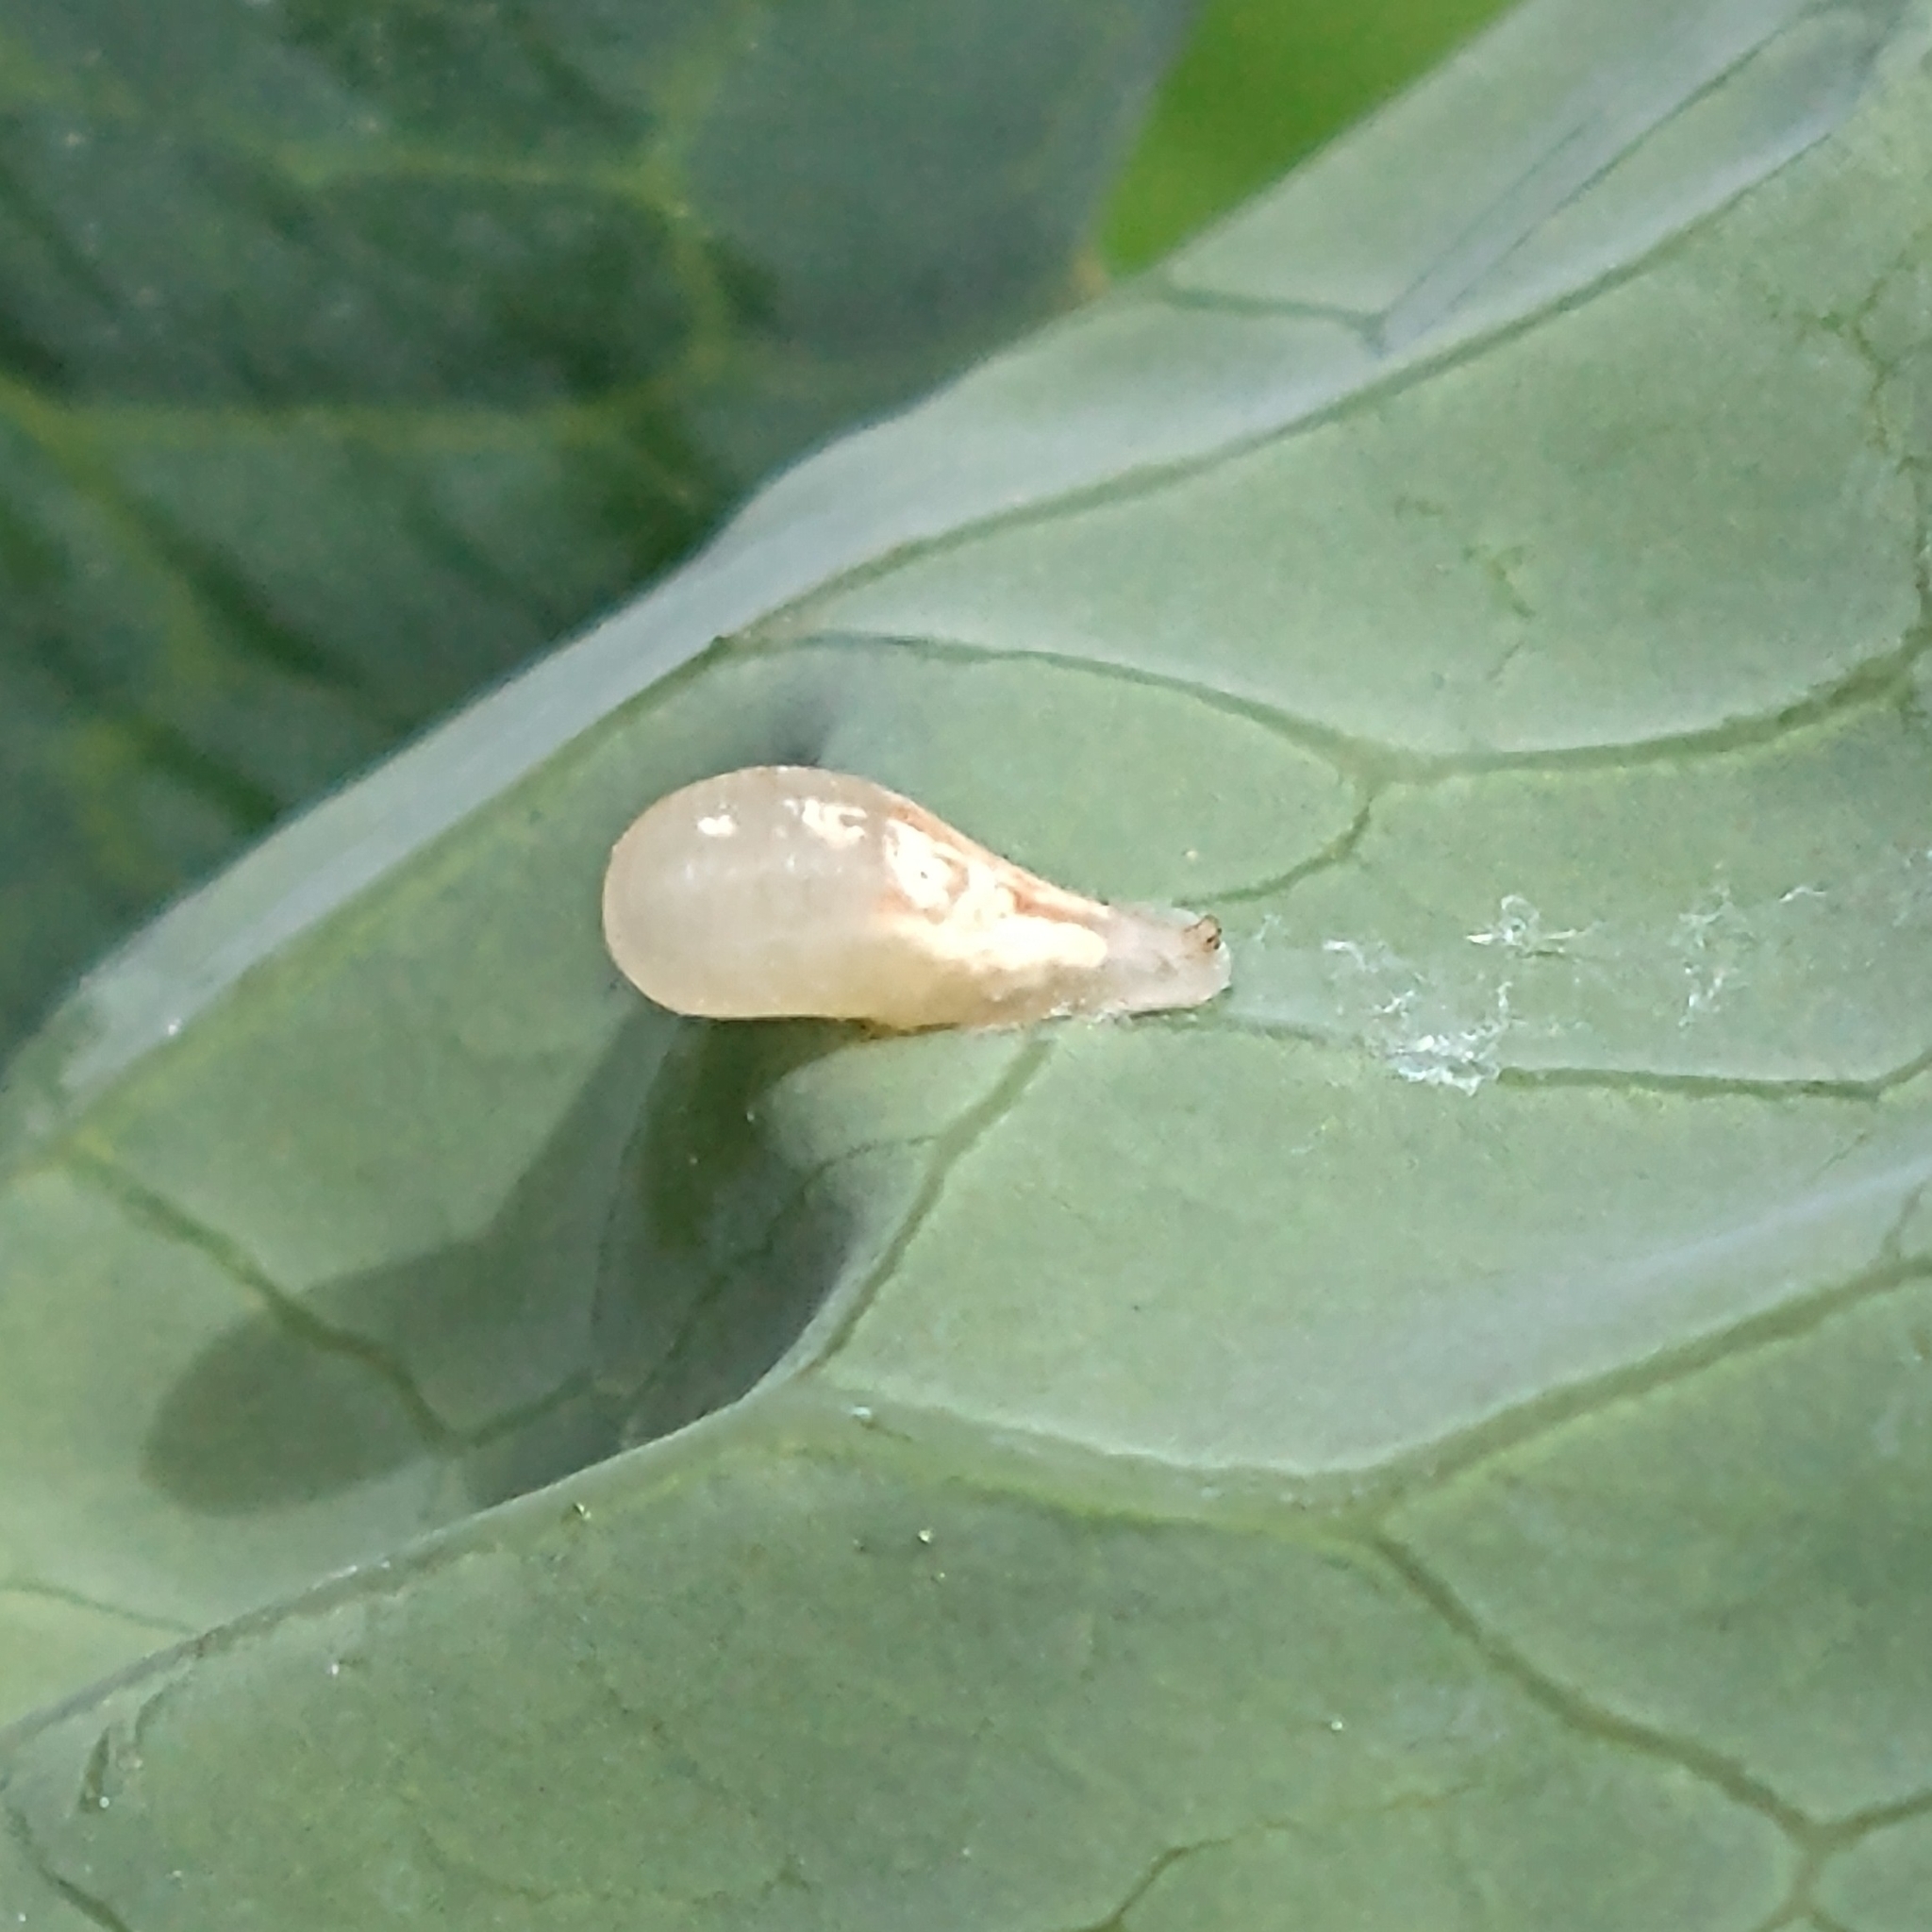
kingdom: Animalia
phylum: Arthropoda
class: Insecta
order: Diptera
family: Syrphidae
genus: Episyrphus
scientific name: Episyrphus balteatus
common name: Marmalade hoverfly
